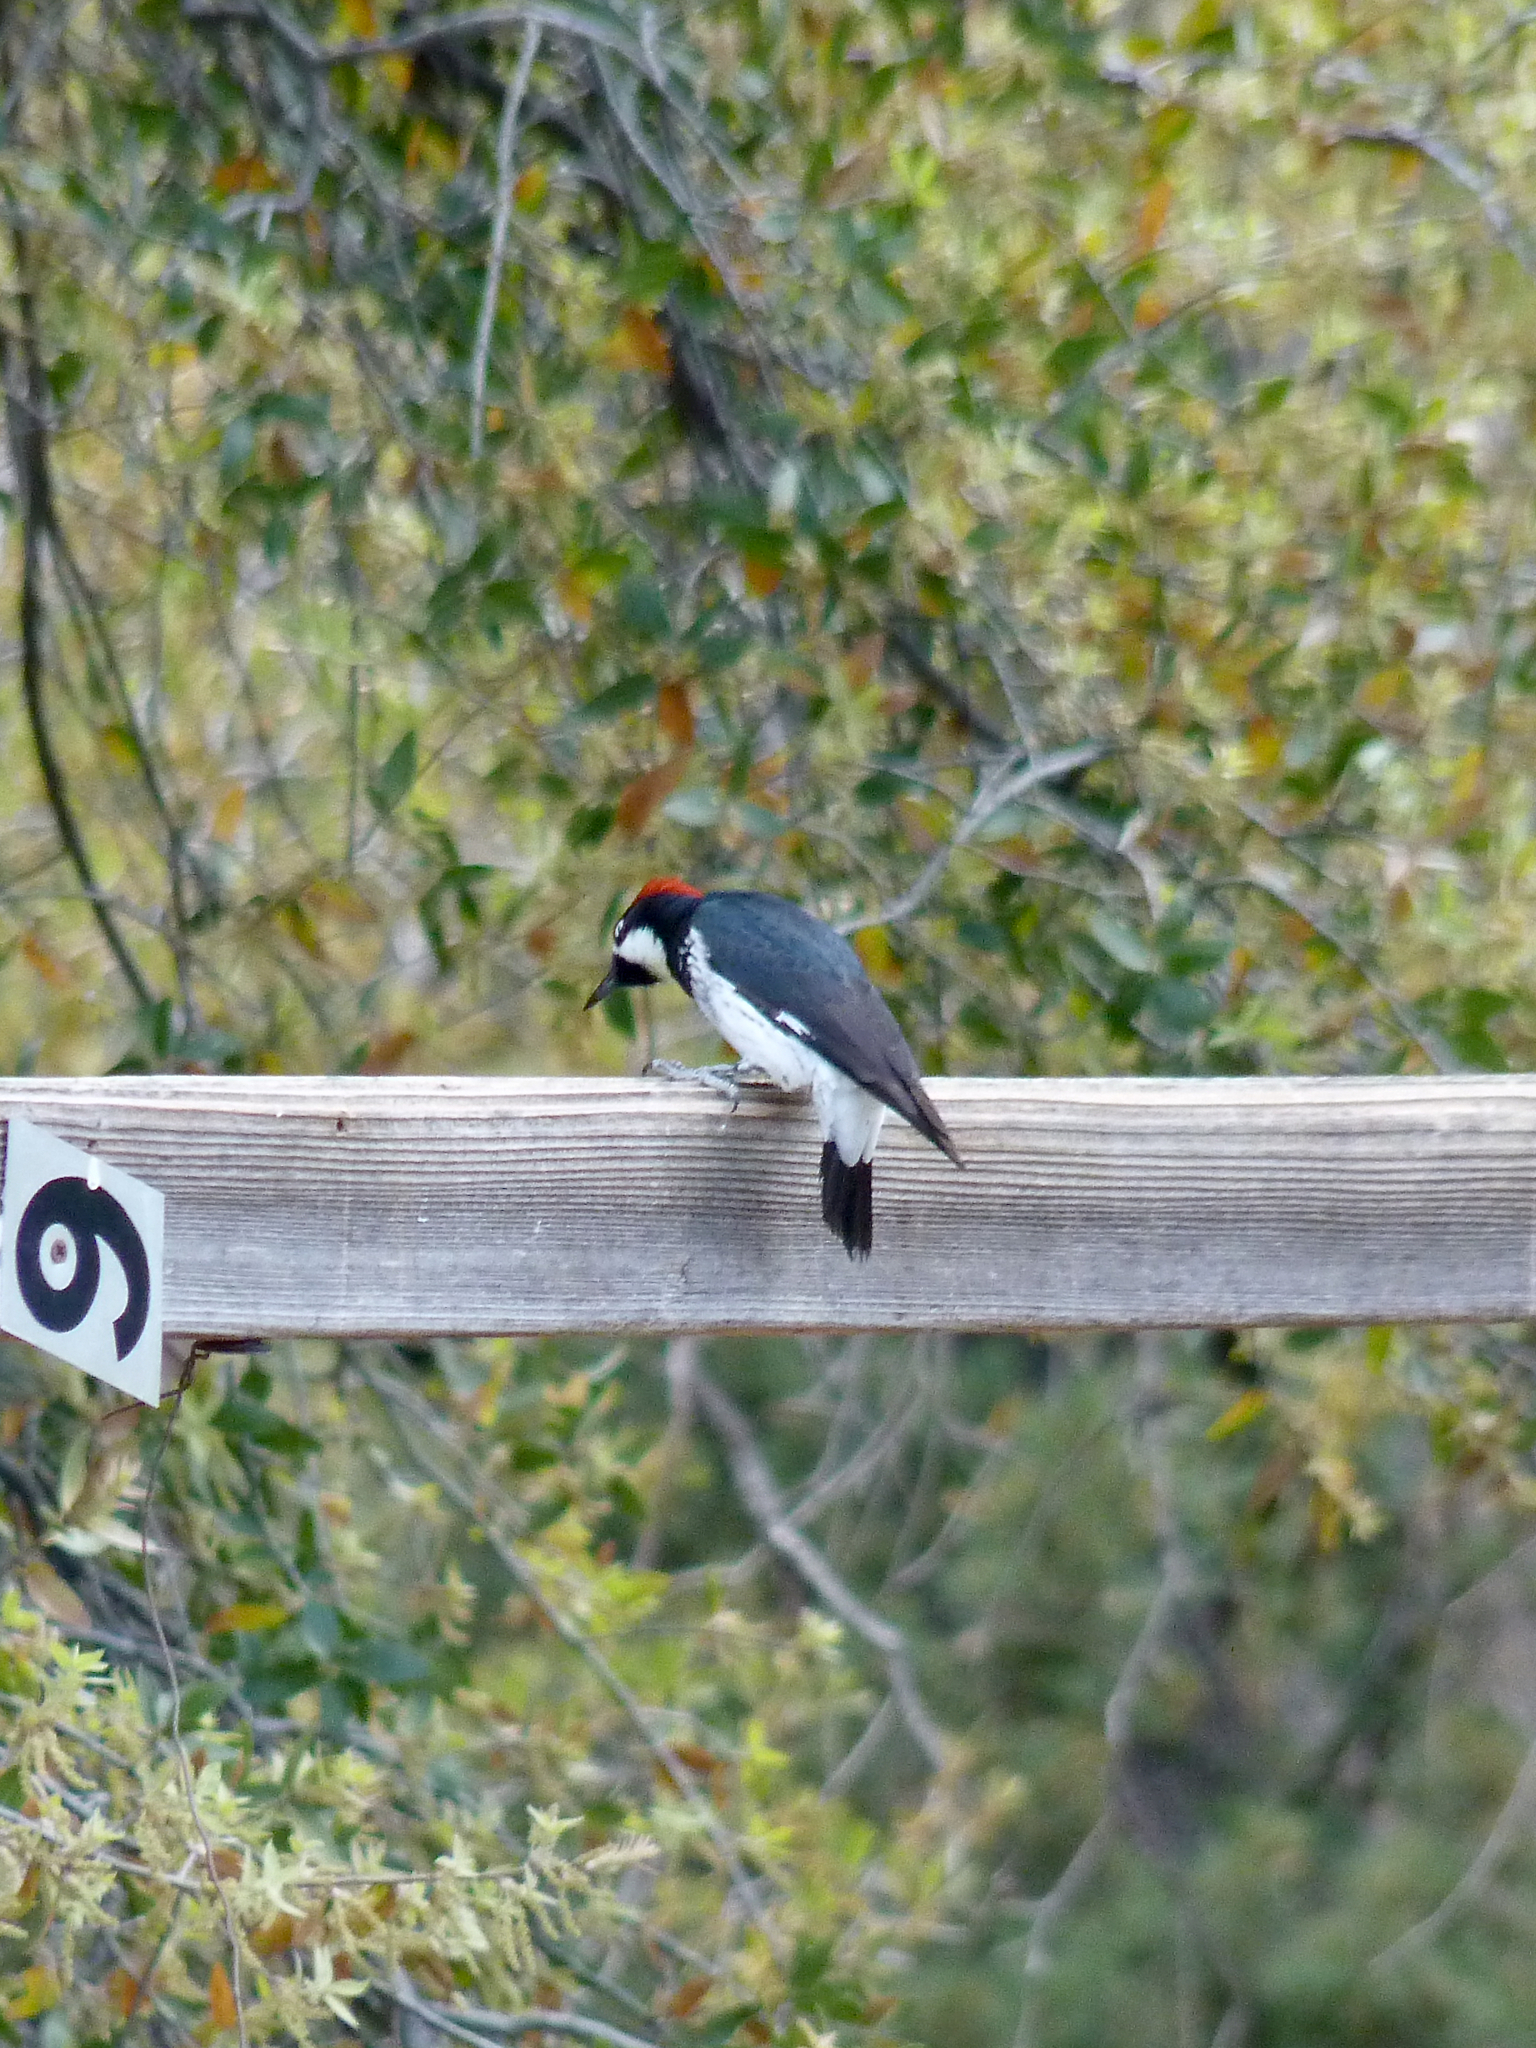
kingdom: Animalia
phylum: Chordata
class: Aves
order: Piciformes
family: Picidae
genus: Melanerpes
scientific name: Melanerpes formicivorus
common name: Acorn woodpecker
